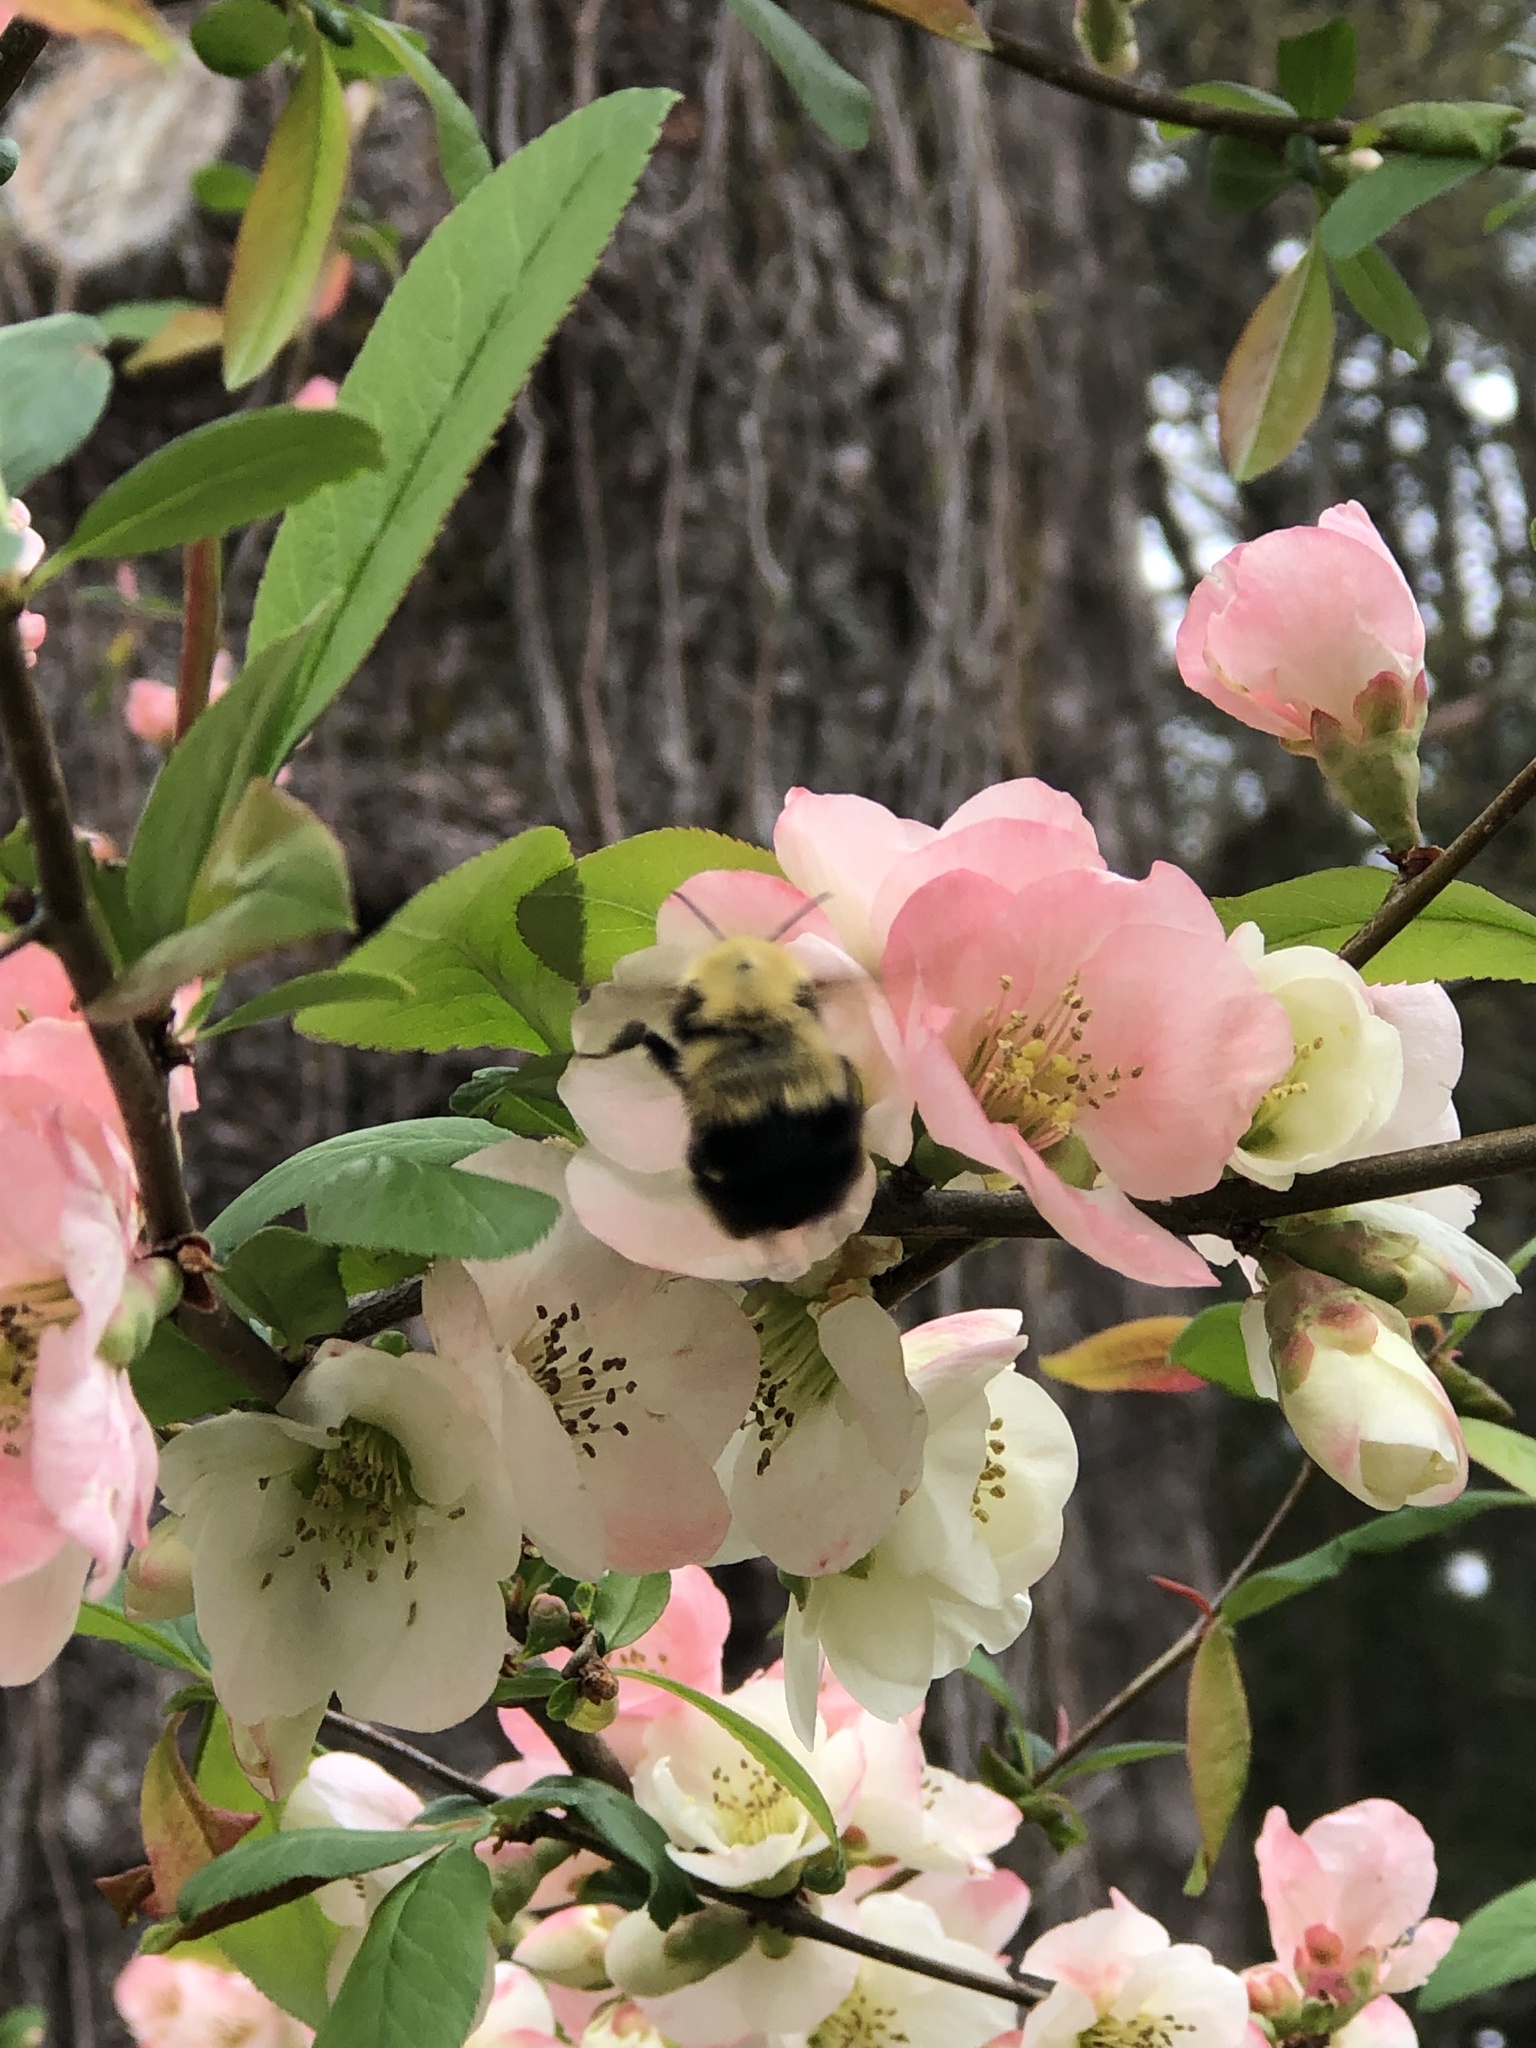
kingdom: Animalia
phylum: Arthropoda
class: Insecta
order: Hymenoptera
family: Apidae
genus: Bombus
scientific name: Bombus perplexus
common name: Confusing bumble bee
